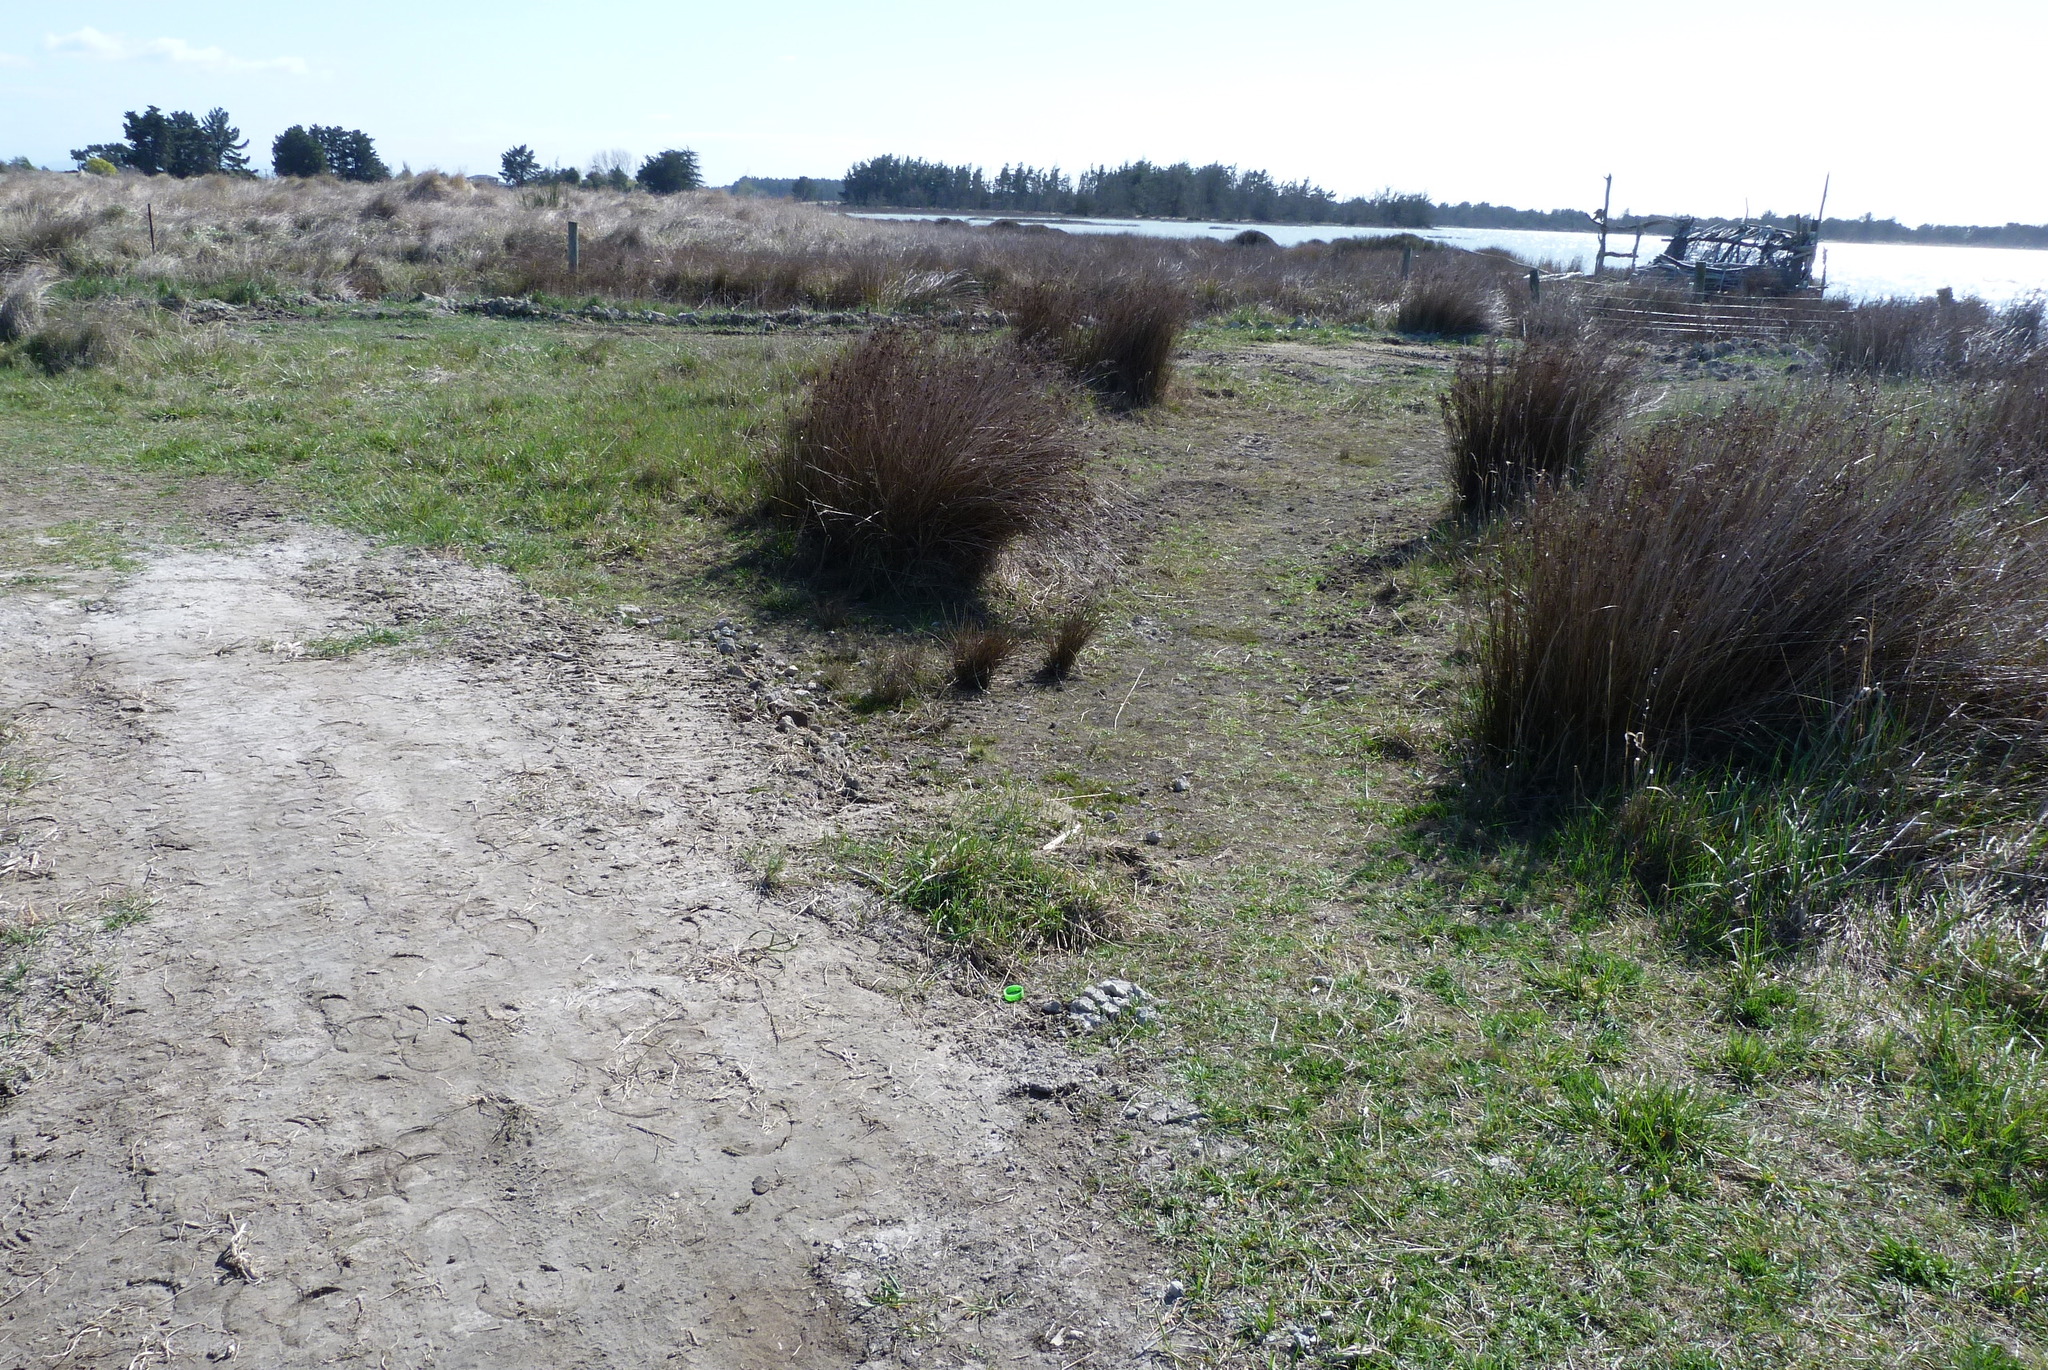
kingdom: Plantae
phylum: Tracheophyta
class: Liliopsida
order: Poales
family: Poaceae
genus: Zoysia
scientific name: Zoysia minima
